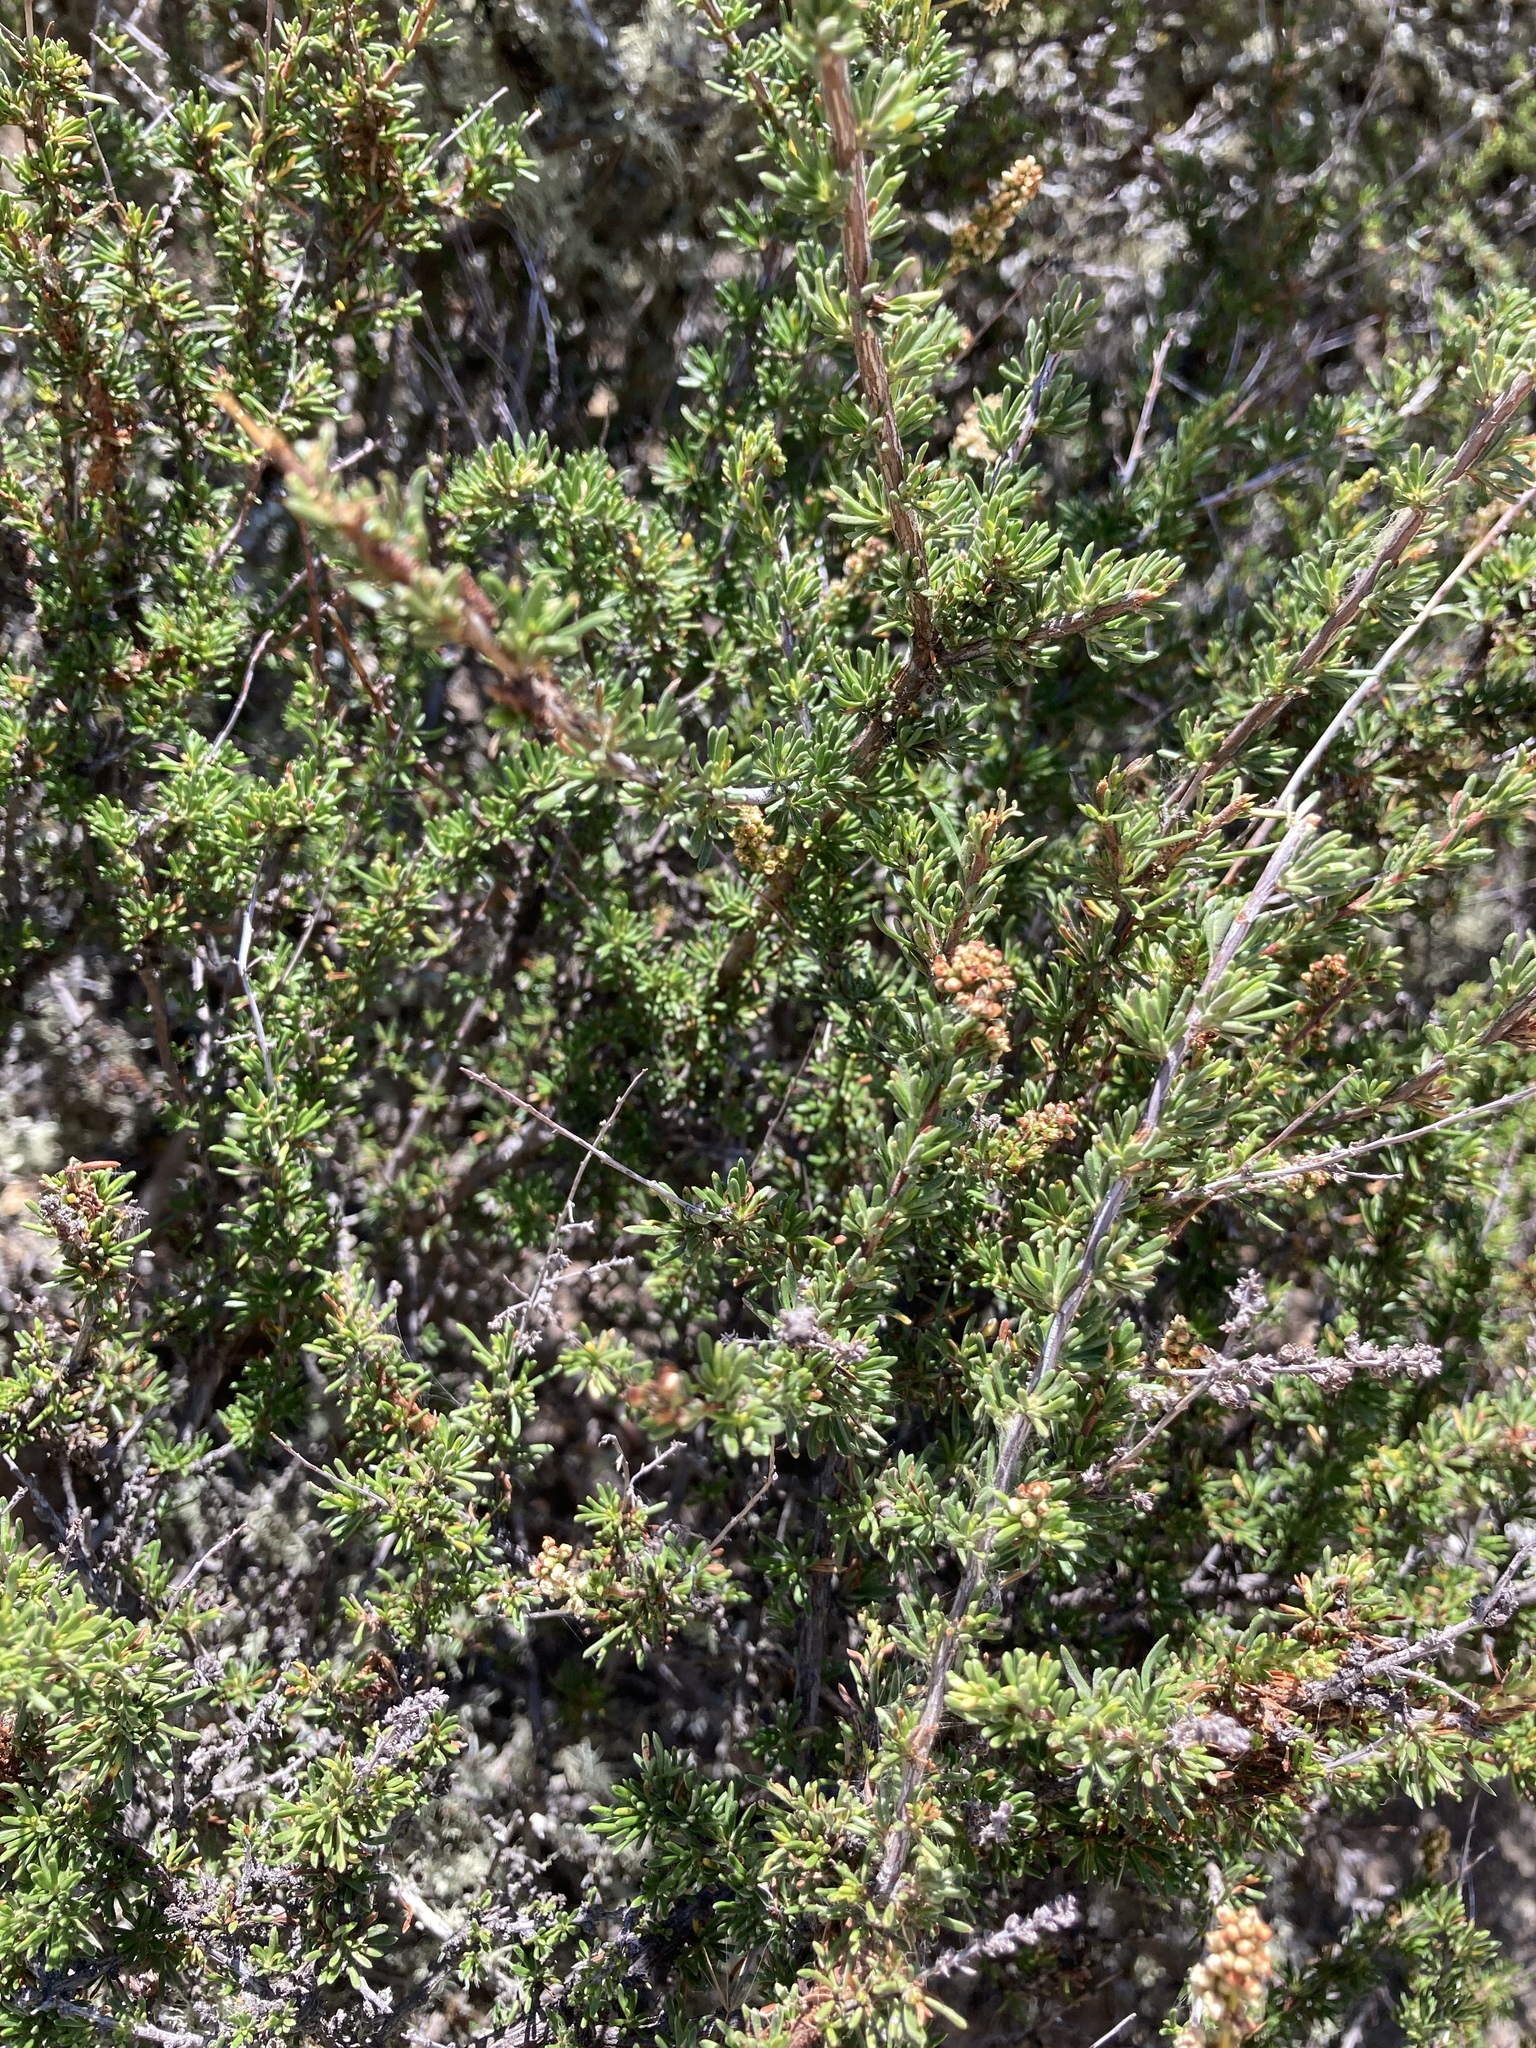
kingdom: Plantae
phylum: Tracheophyta
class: Magnoliopsida
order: Rosales
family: Rosaceae
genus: Adenostoma
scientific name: Adenostoma fasciculatum
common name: Chamise
